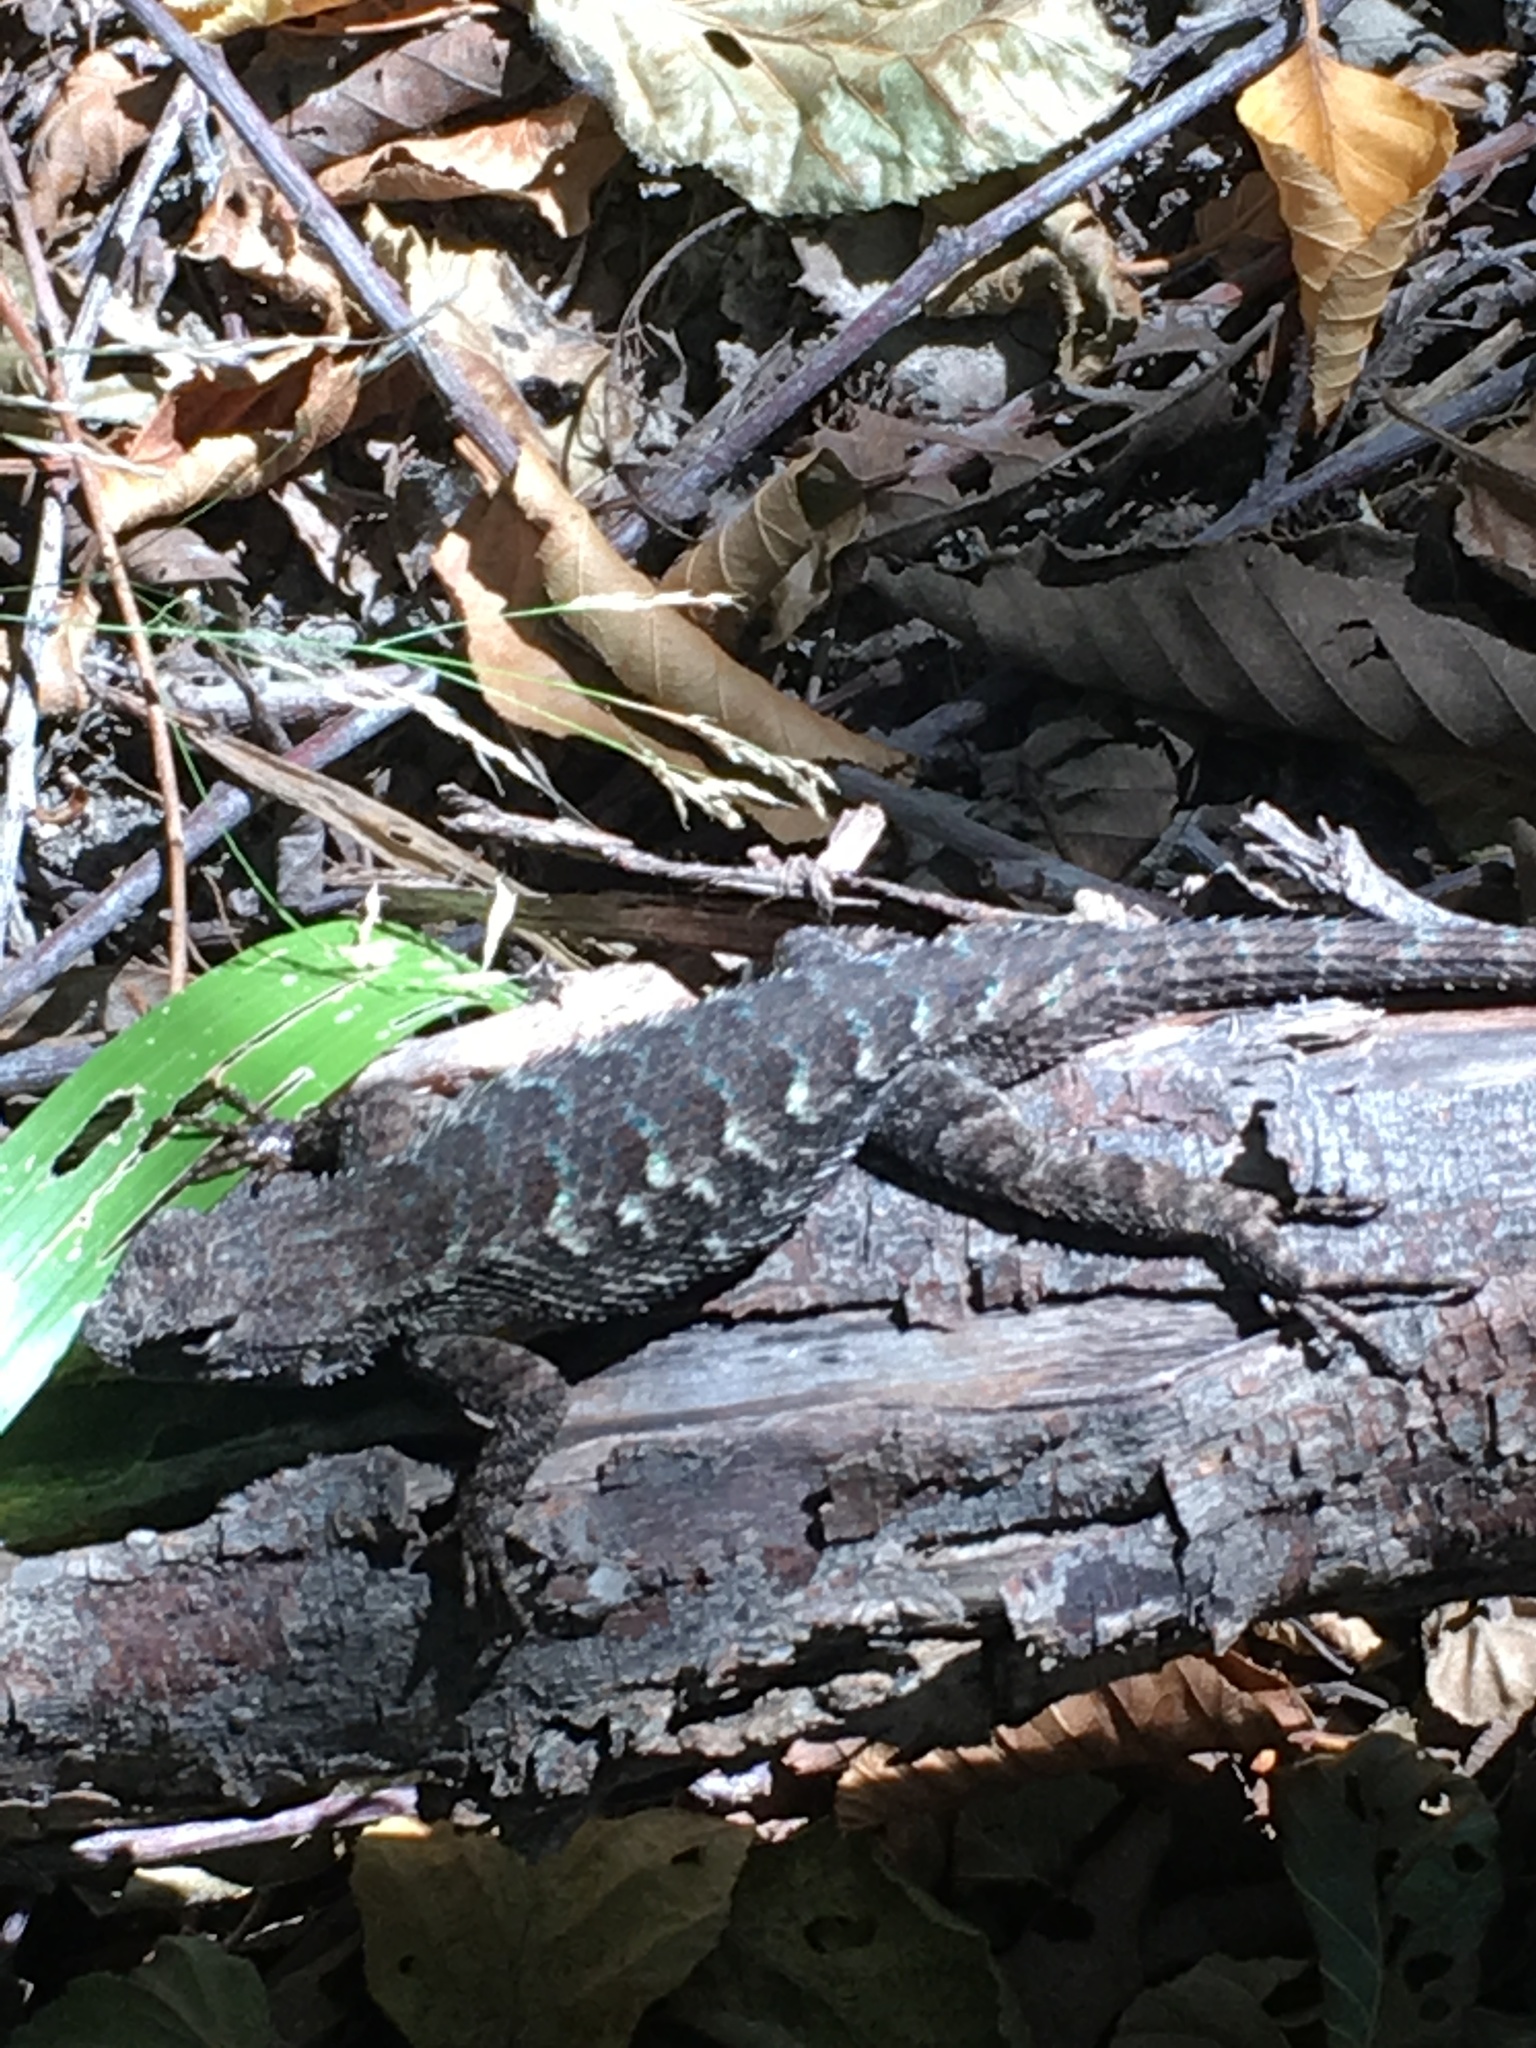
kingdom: Animalia
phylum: Chordata
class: Squamata
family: Phrynosomatidae
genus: Sceloporus
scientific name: Sceloporus occidentalis
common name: Western fence lizard
